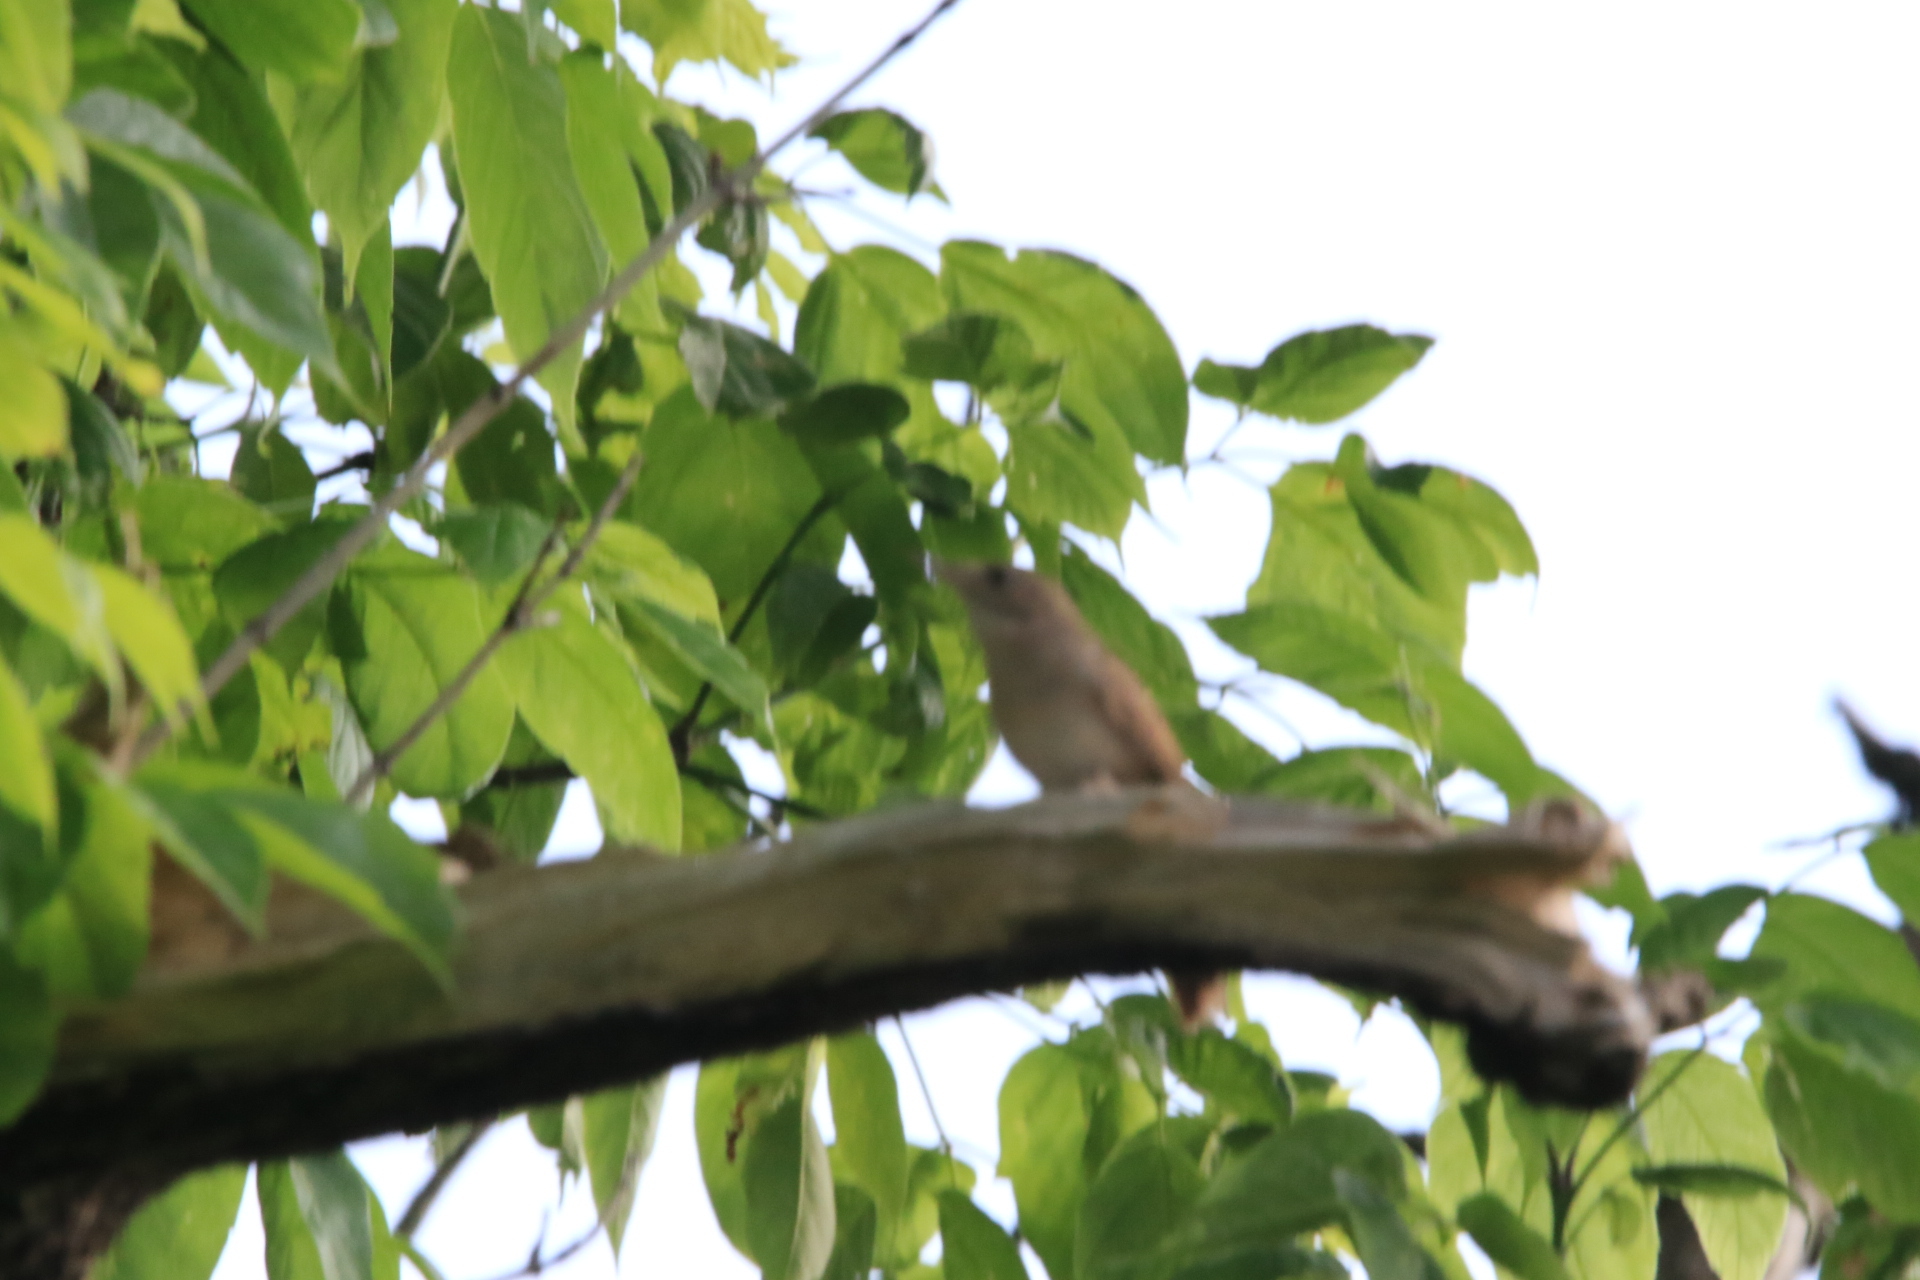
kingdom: Animalia
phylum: Chordata
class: Aves
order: Passeriformes
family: Troglodytidae
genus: Troglodytes
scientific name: Troglodytes aedon
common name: House wren
